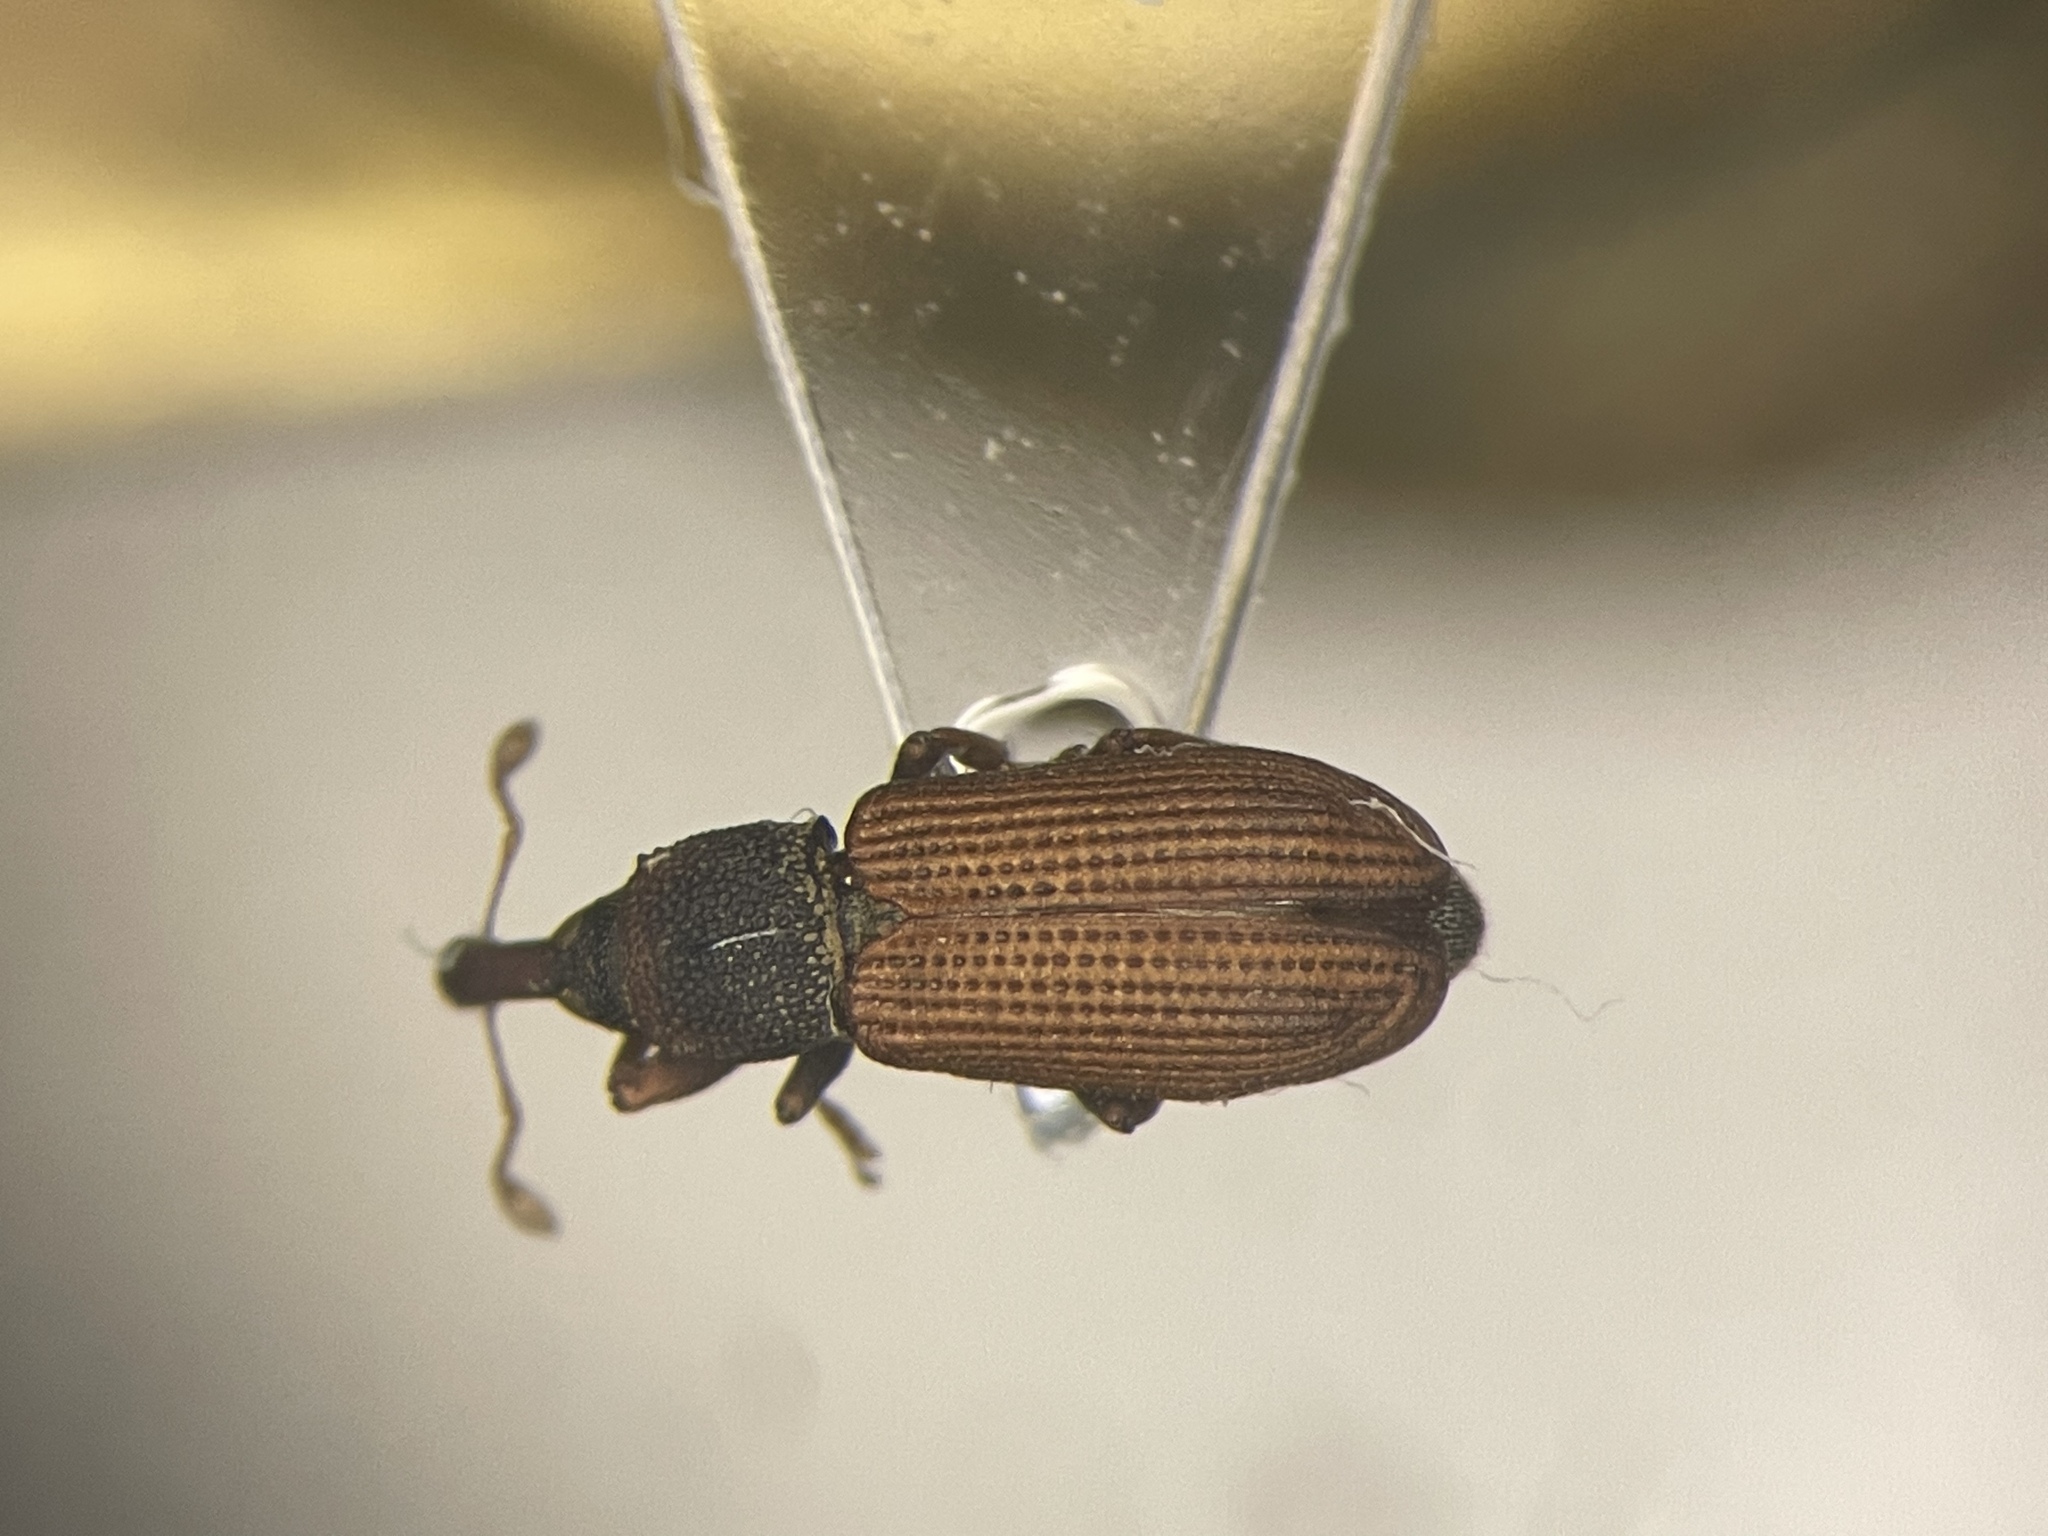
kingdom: Animalia
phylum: Arthropoda
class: Insecta
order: Coleoptera
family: Curculionidae
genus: Magdalis
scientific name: Magdalis armicollis
